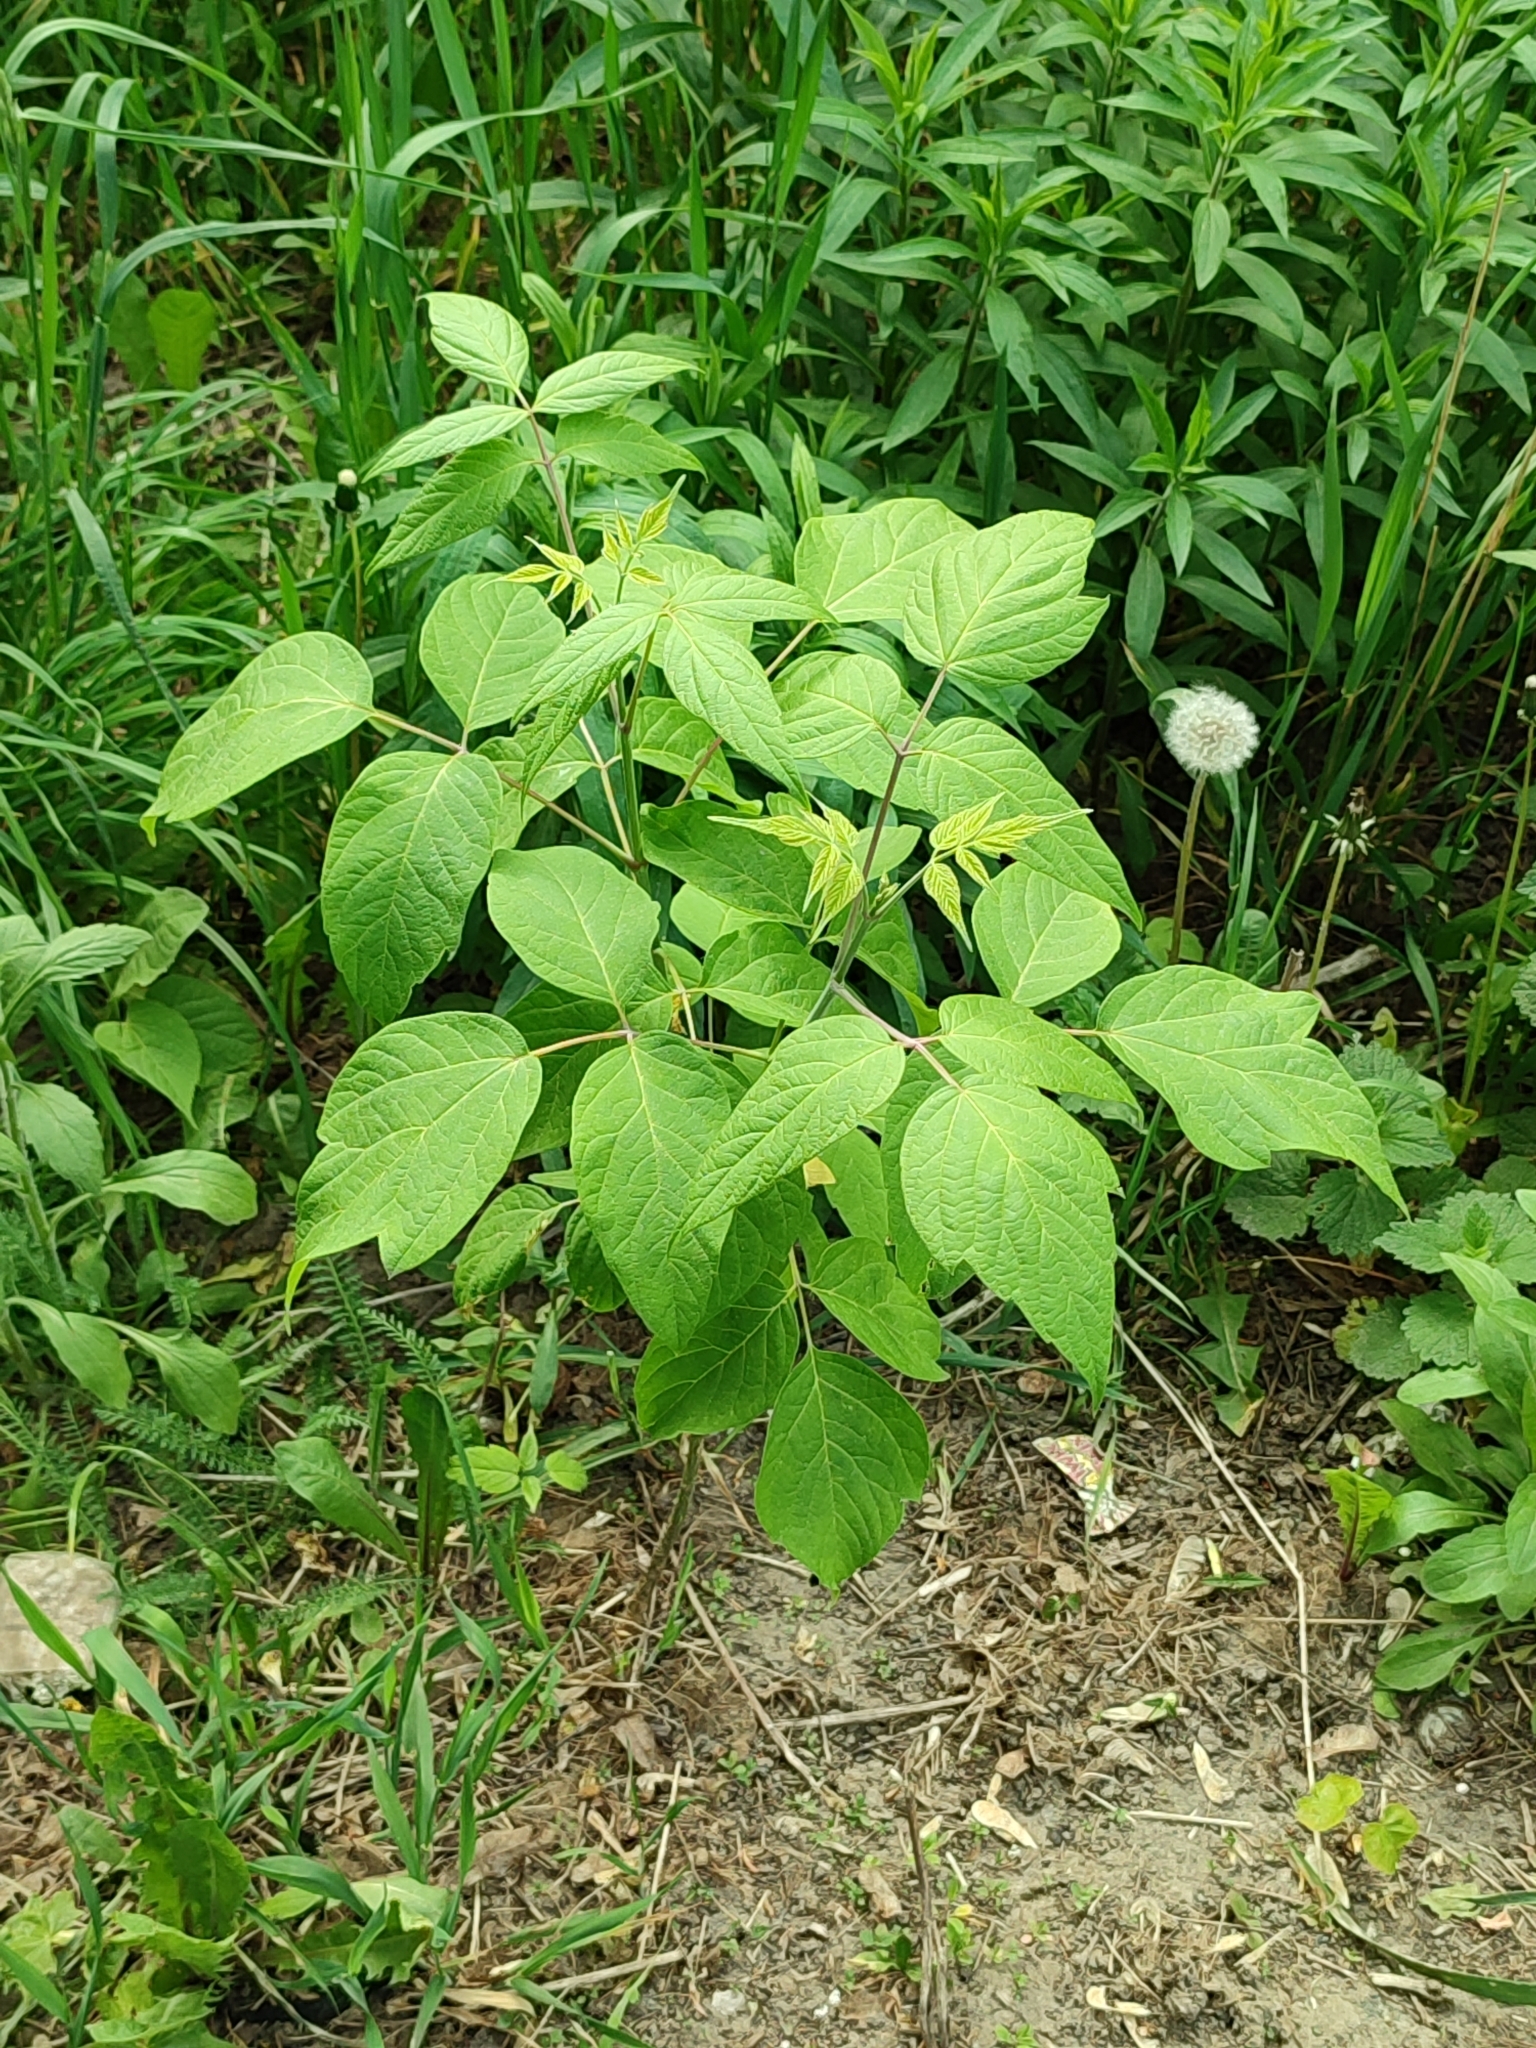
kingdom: Plantae
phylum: Tracheophyta
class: Magnoliopsida
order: Sapindales
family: Sapindaceae
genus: Acer
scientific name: Acer negundo
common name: Ashleaf maple
